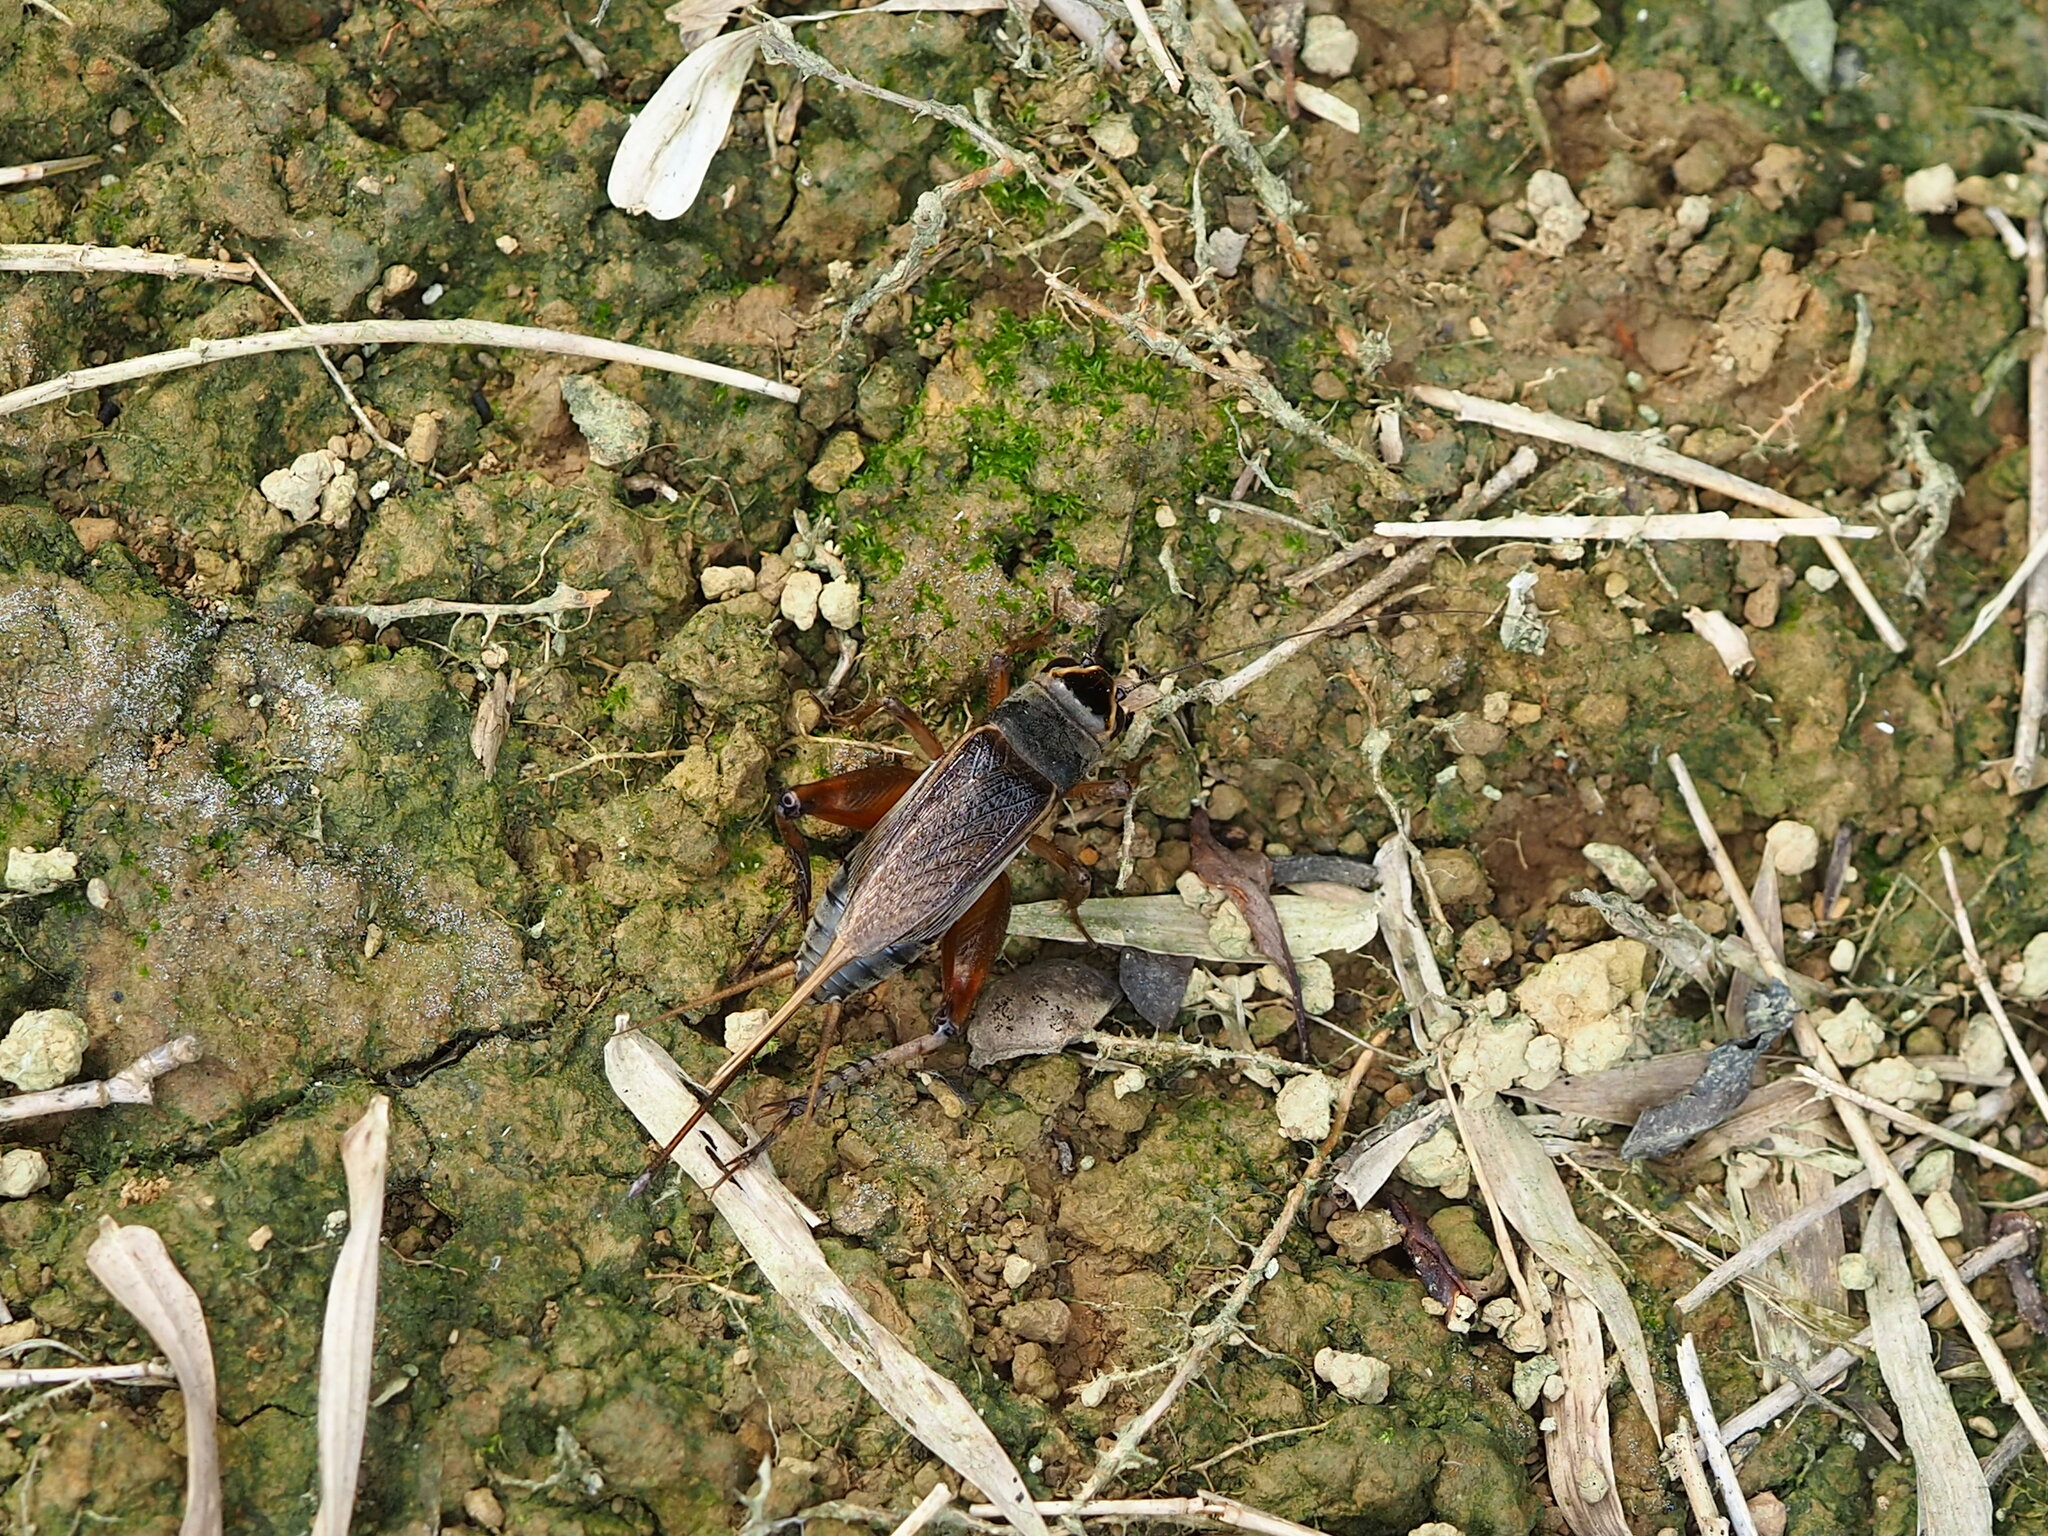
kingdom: Animalia
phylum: Arthropoda
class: Insecta
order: Orthoptera
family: Gryllidae
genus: Teleogryllus
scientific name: Teleogryllus occipitalis
